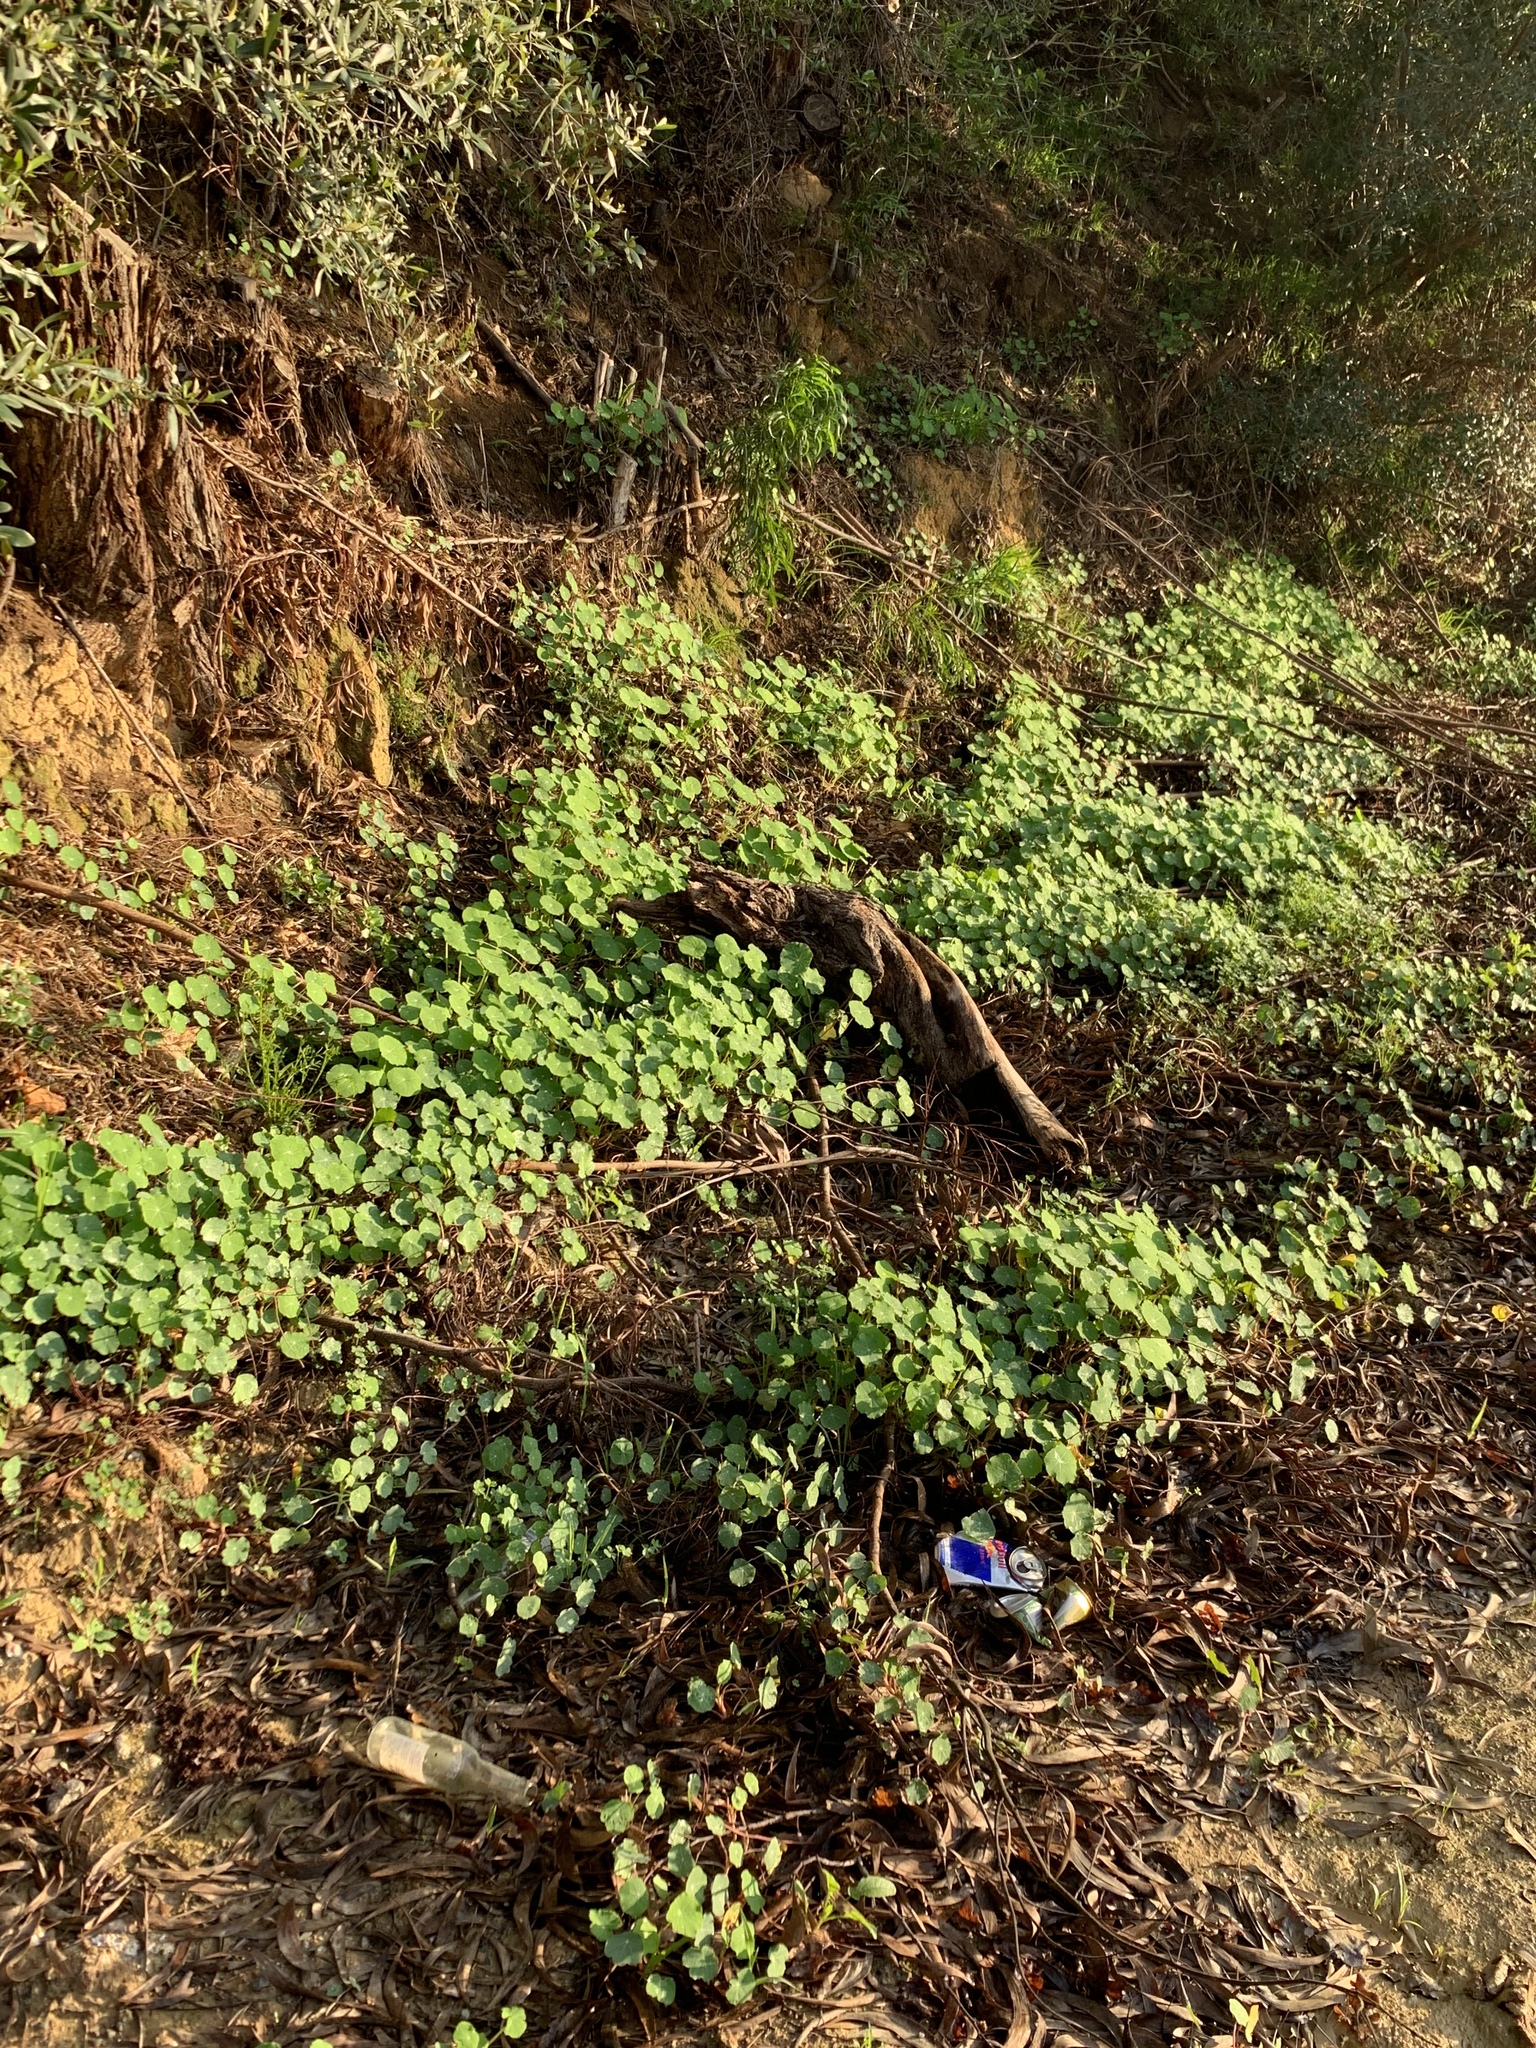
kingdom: Plantae
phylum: Tracheophyta
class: Magnoliopsida
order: Brassicales
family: Tropaeolaceae
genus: Tropaeolum
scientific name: Tropaeolum majus
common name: Nasturtium
